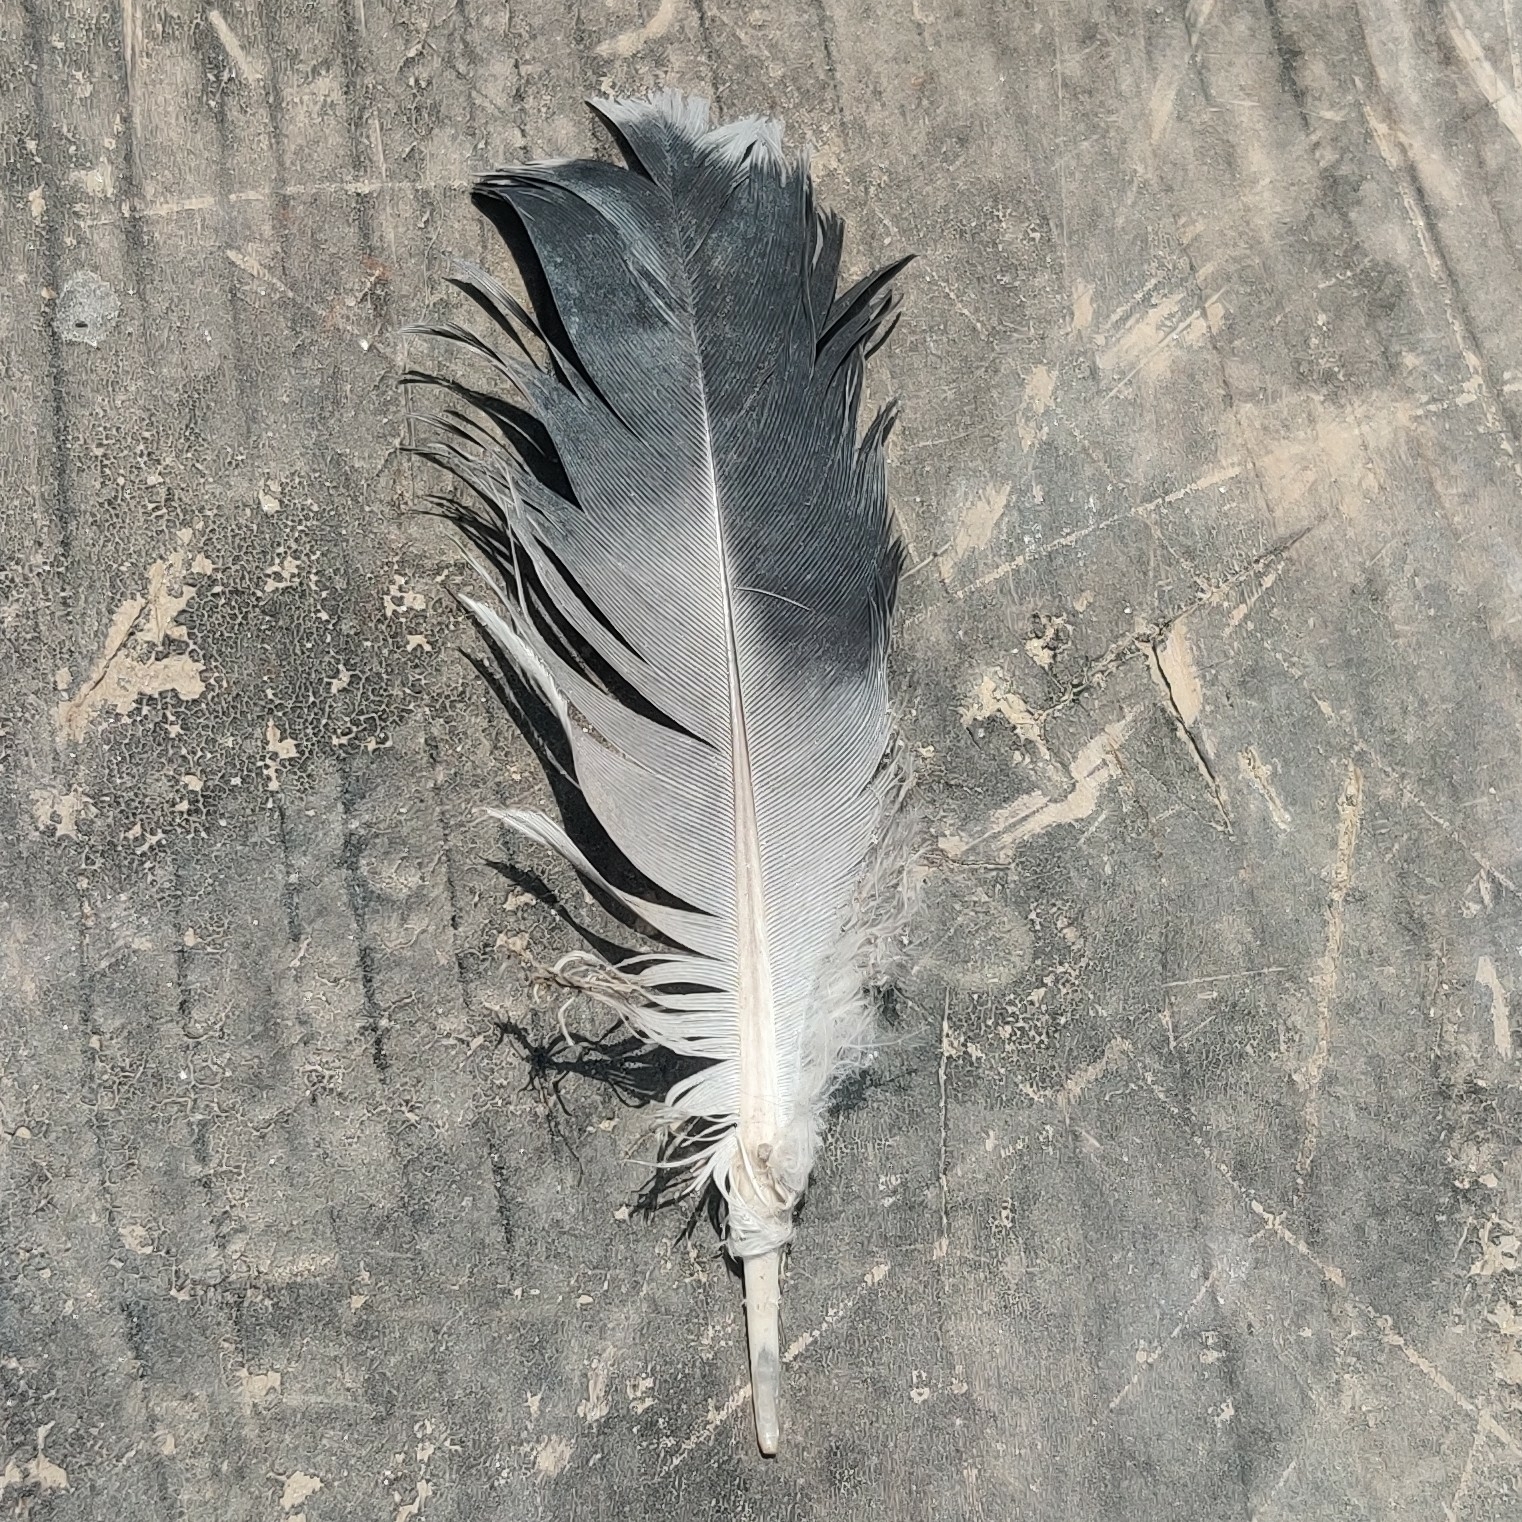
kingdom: Animalia
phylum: Chordata
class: Aves
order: Columbiformes
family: Columbidae
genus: Columba
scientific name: Columba livia
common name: Rock pigeon
